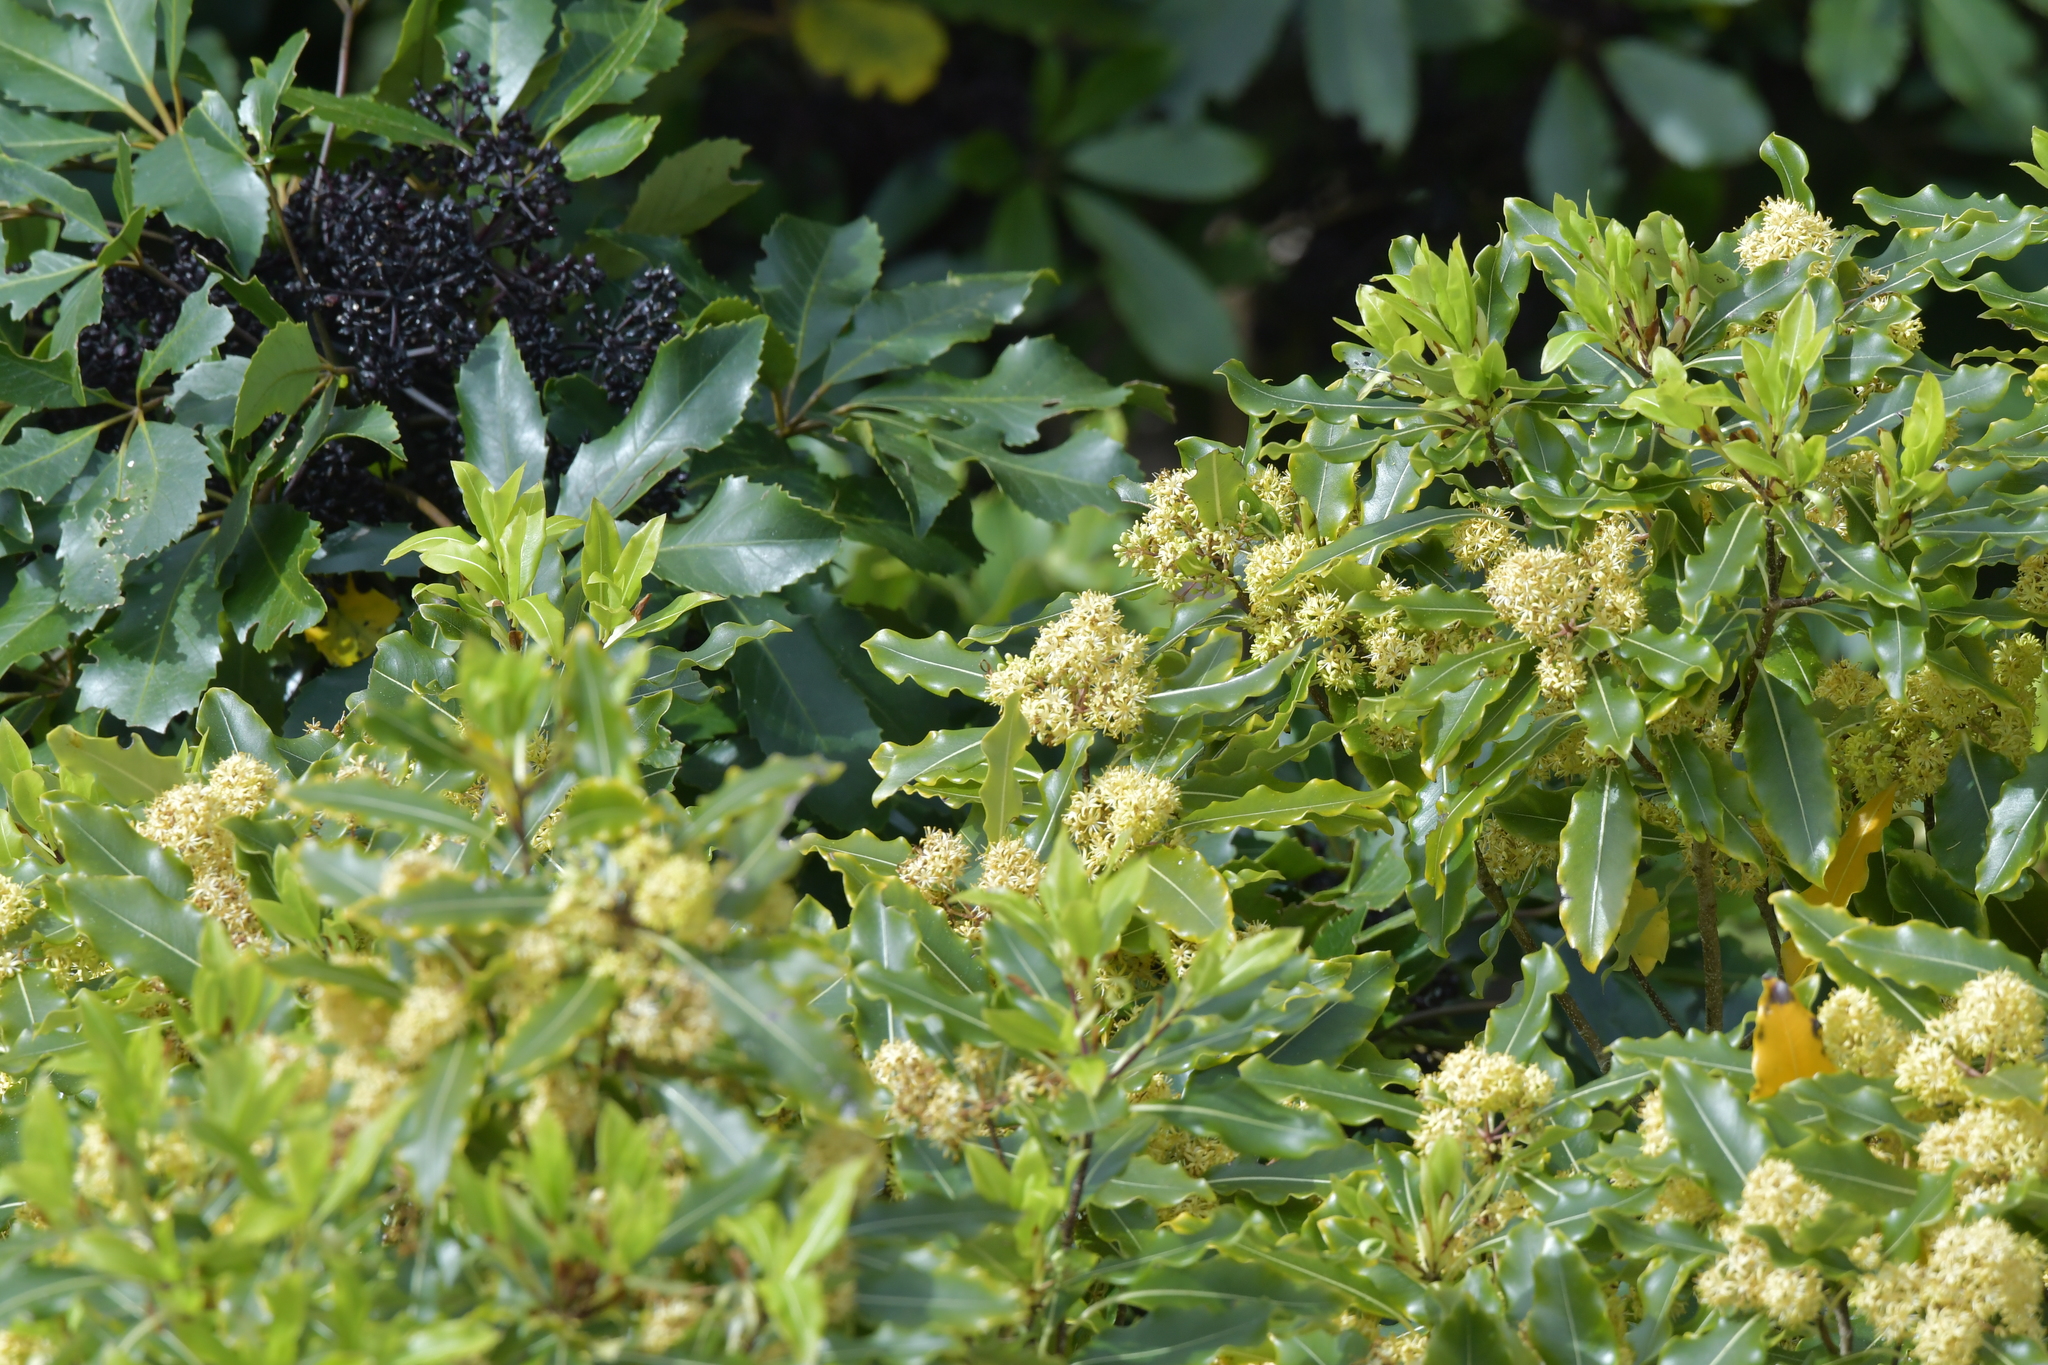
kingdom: Plantae
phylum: Tracheophyta
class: Magnoliopsida
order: Apiales
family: Pittosporaceae
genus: Pittosporum
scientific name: Pittosporum eugenioides
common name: Lemonwood
